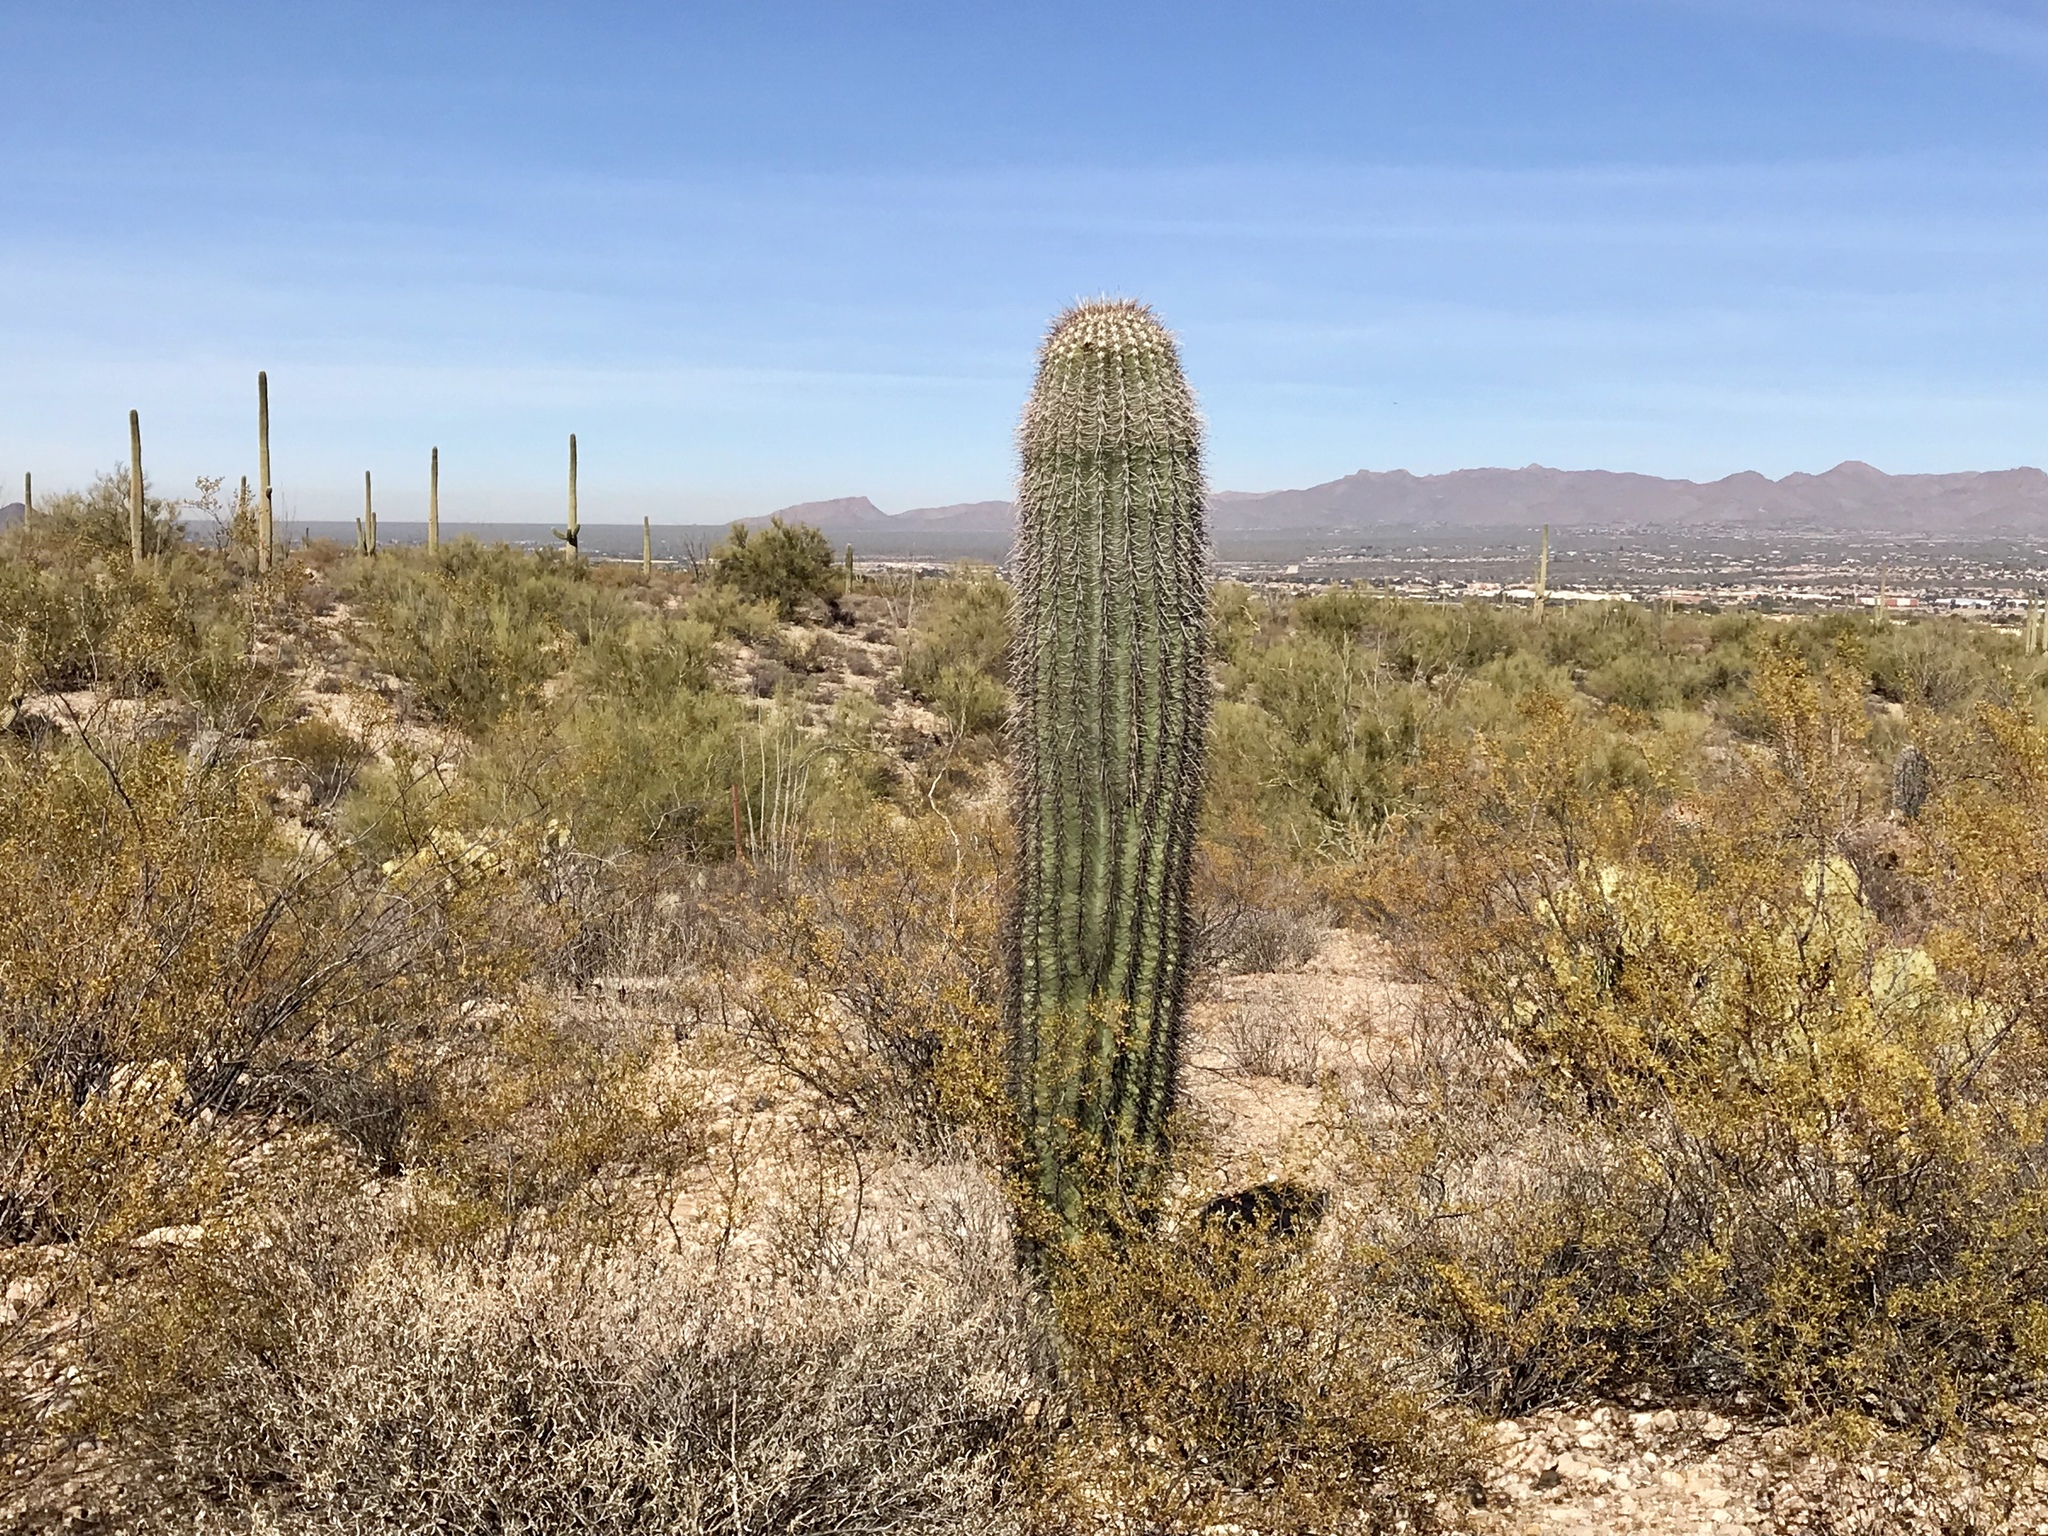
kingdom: Plantae
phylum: Tracheophyta
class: Magnoliopsida
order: Caryophyllales
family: Cactaceae
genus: Carnegiea
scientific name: Carnegiea gigantea
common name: Saguaro
